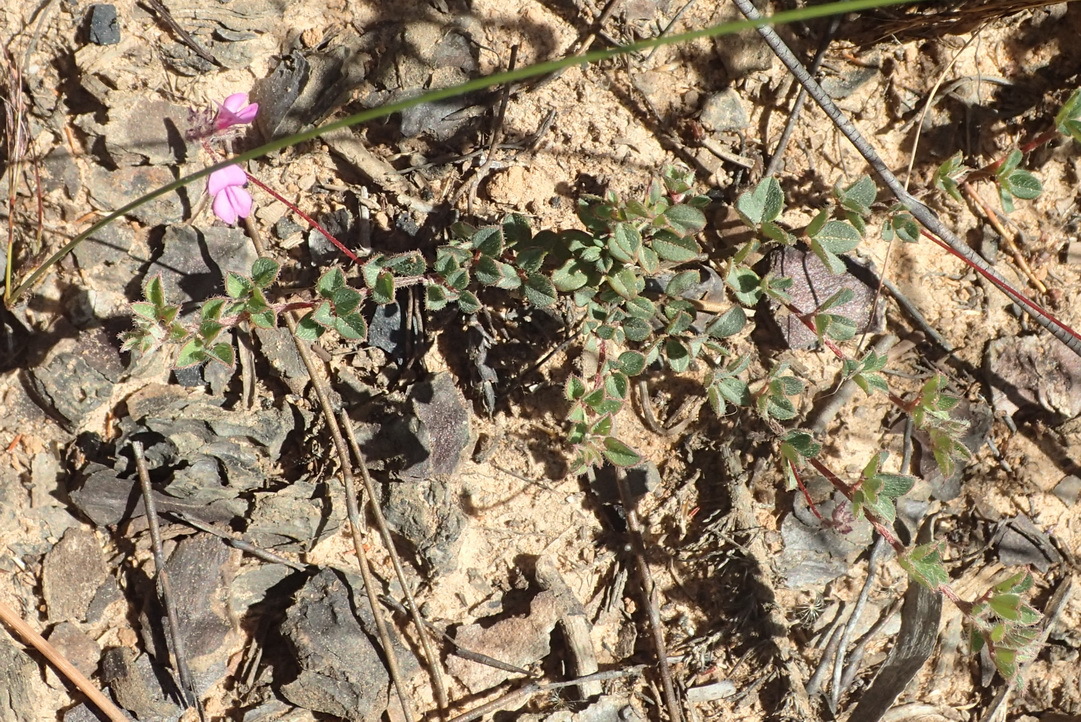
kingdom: Plantae
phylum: Tracheophyta
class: Magnoliopsida
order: Fabales
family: Fabaceae
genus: Indigofera
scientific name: Indigofera alopecuroides
